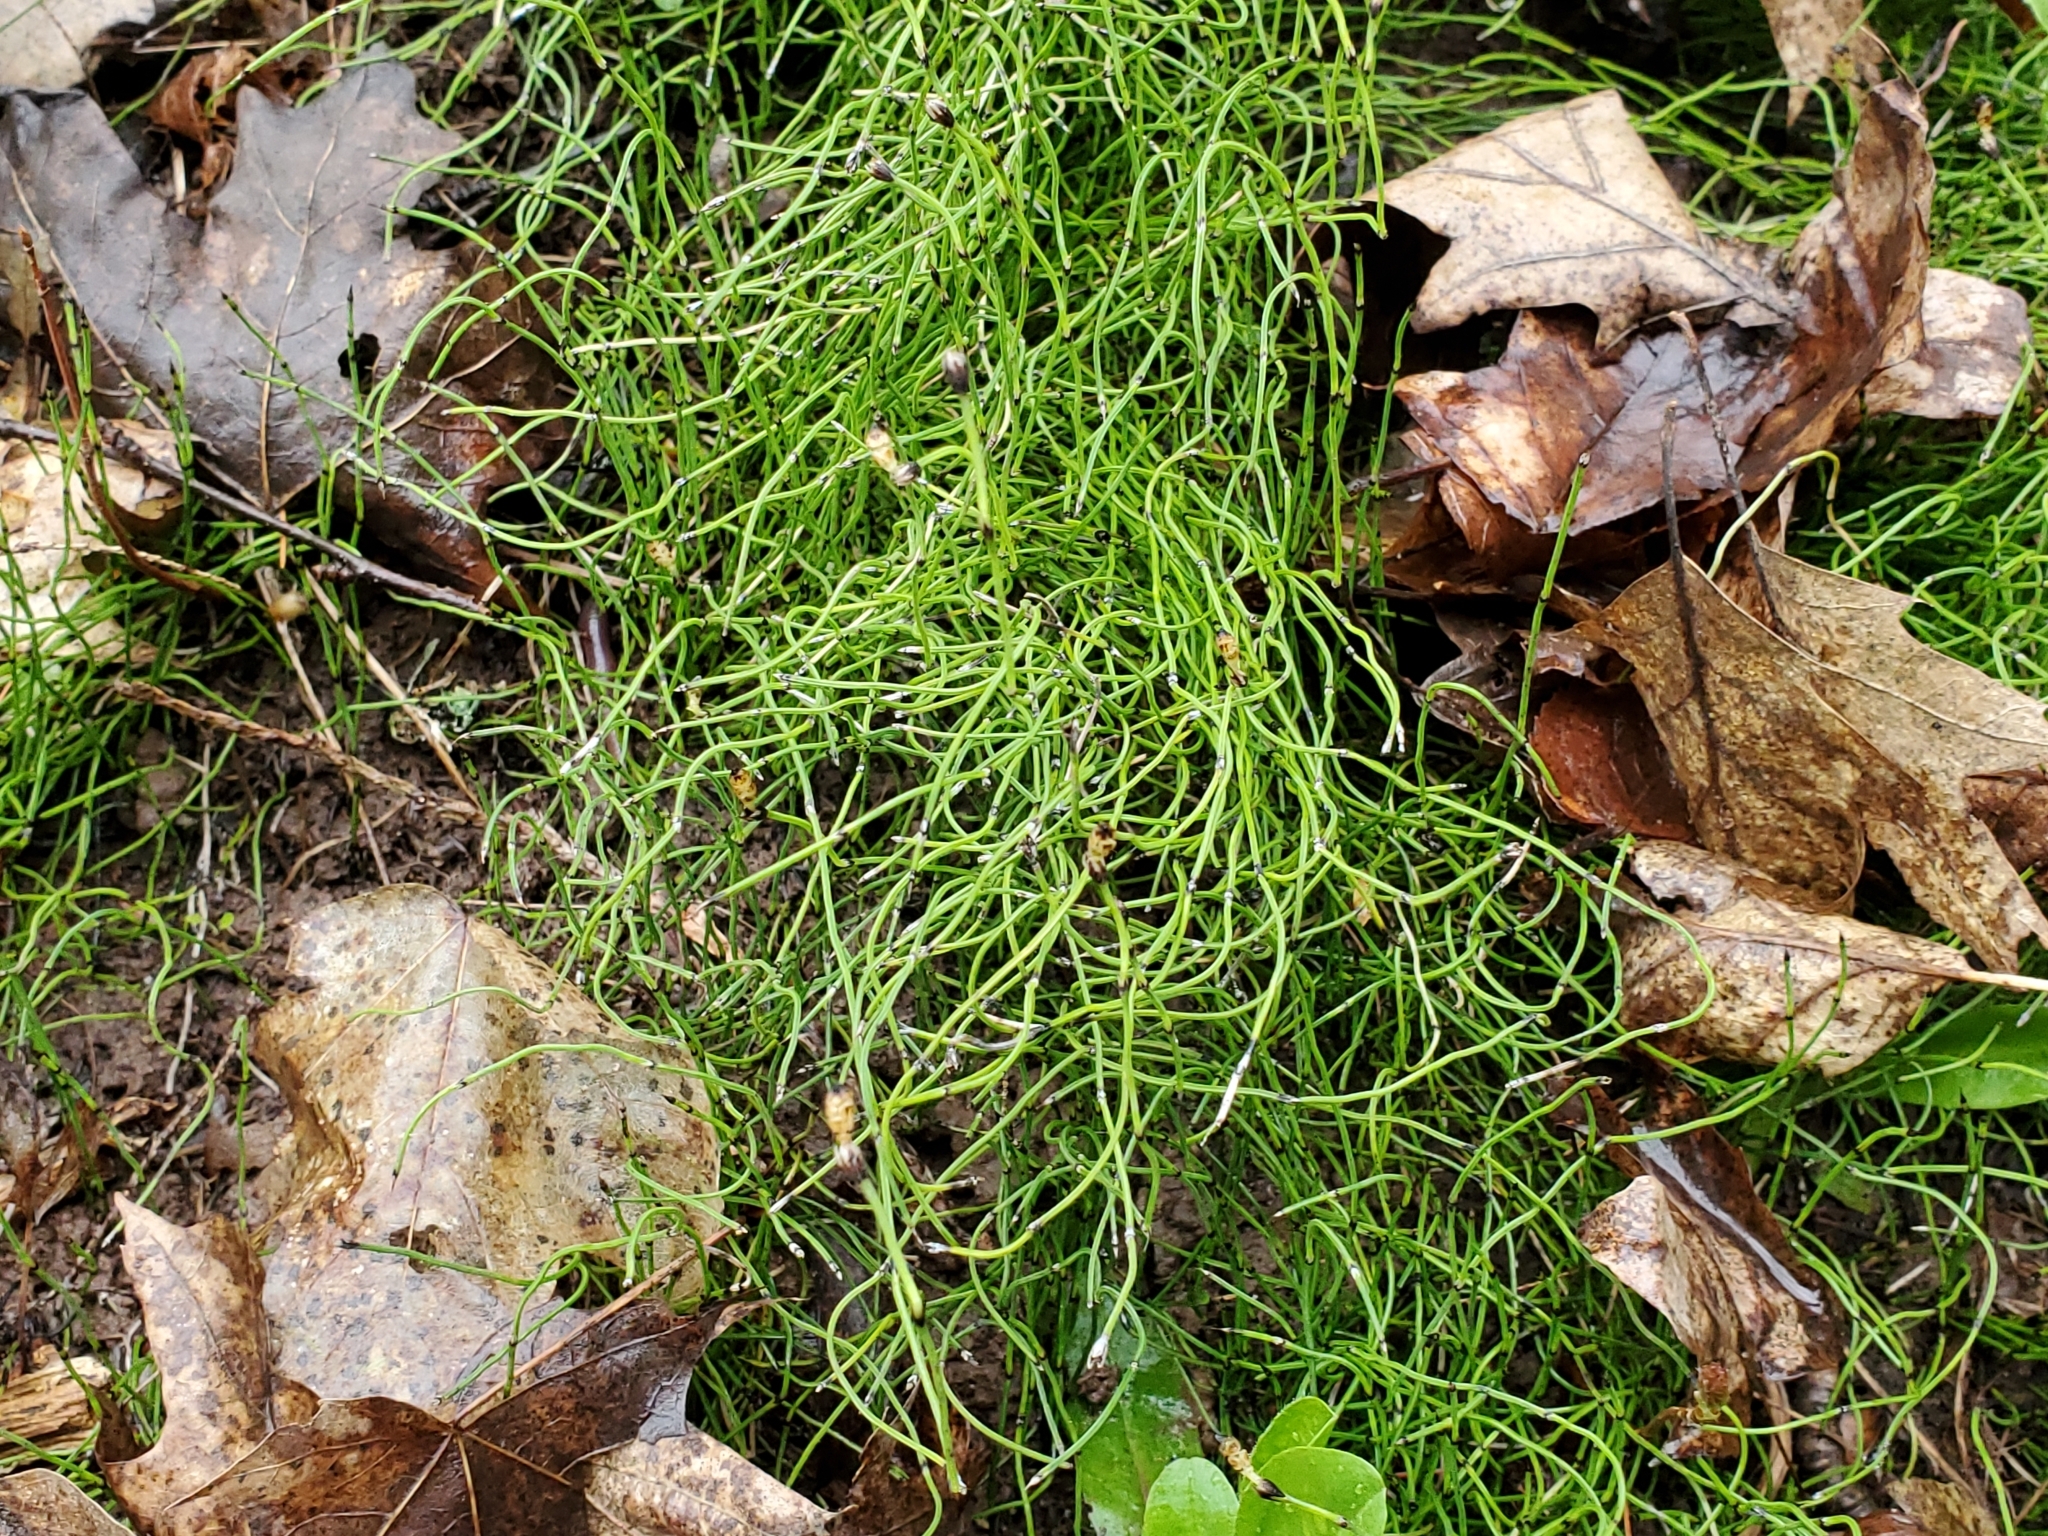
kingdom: Plantae
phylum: Tracheophyta
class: Polypodiopsida
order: Equisetales
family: Equisetaceae
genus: Equisetum
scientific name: Equisetum scirpoides
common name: Delicate horsetail
